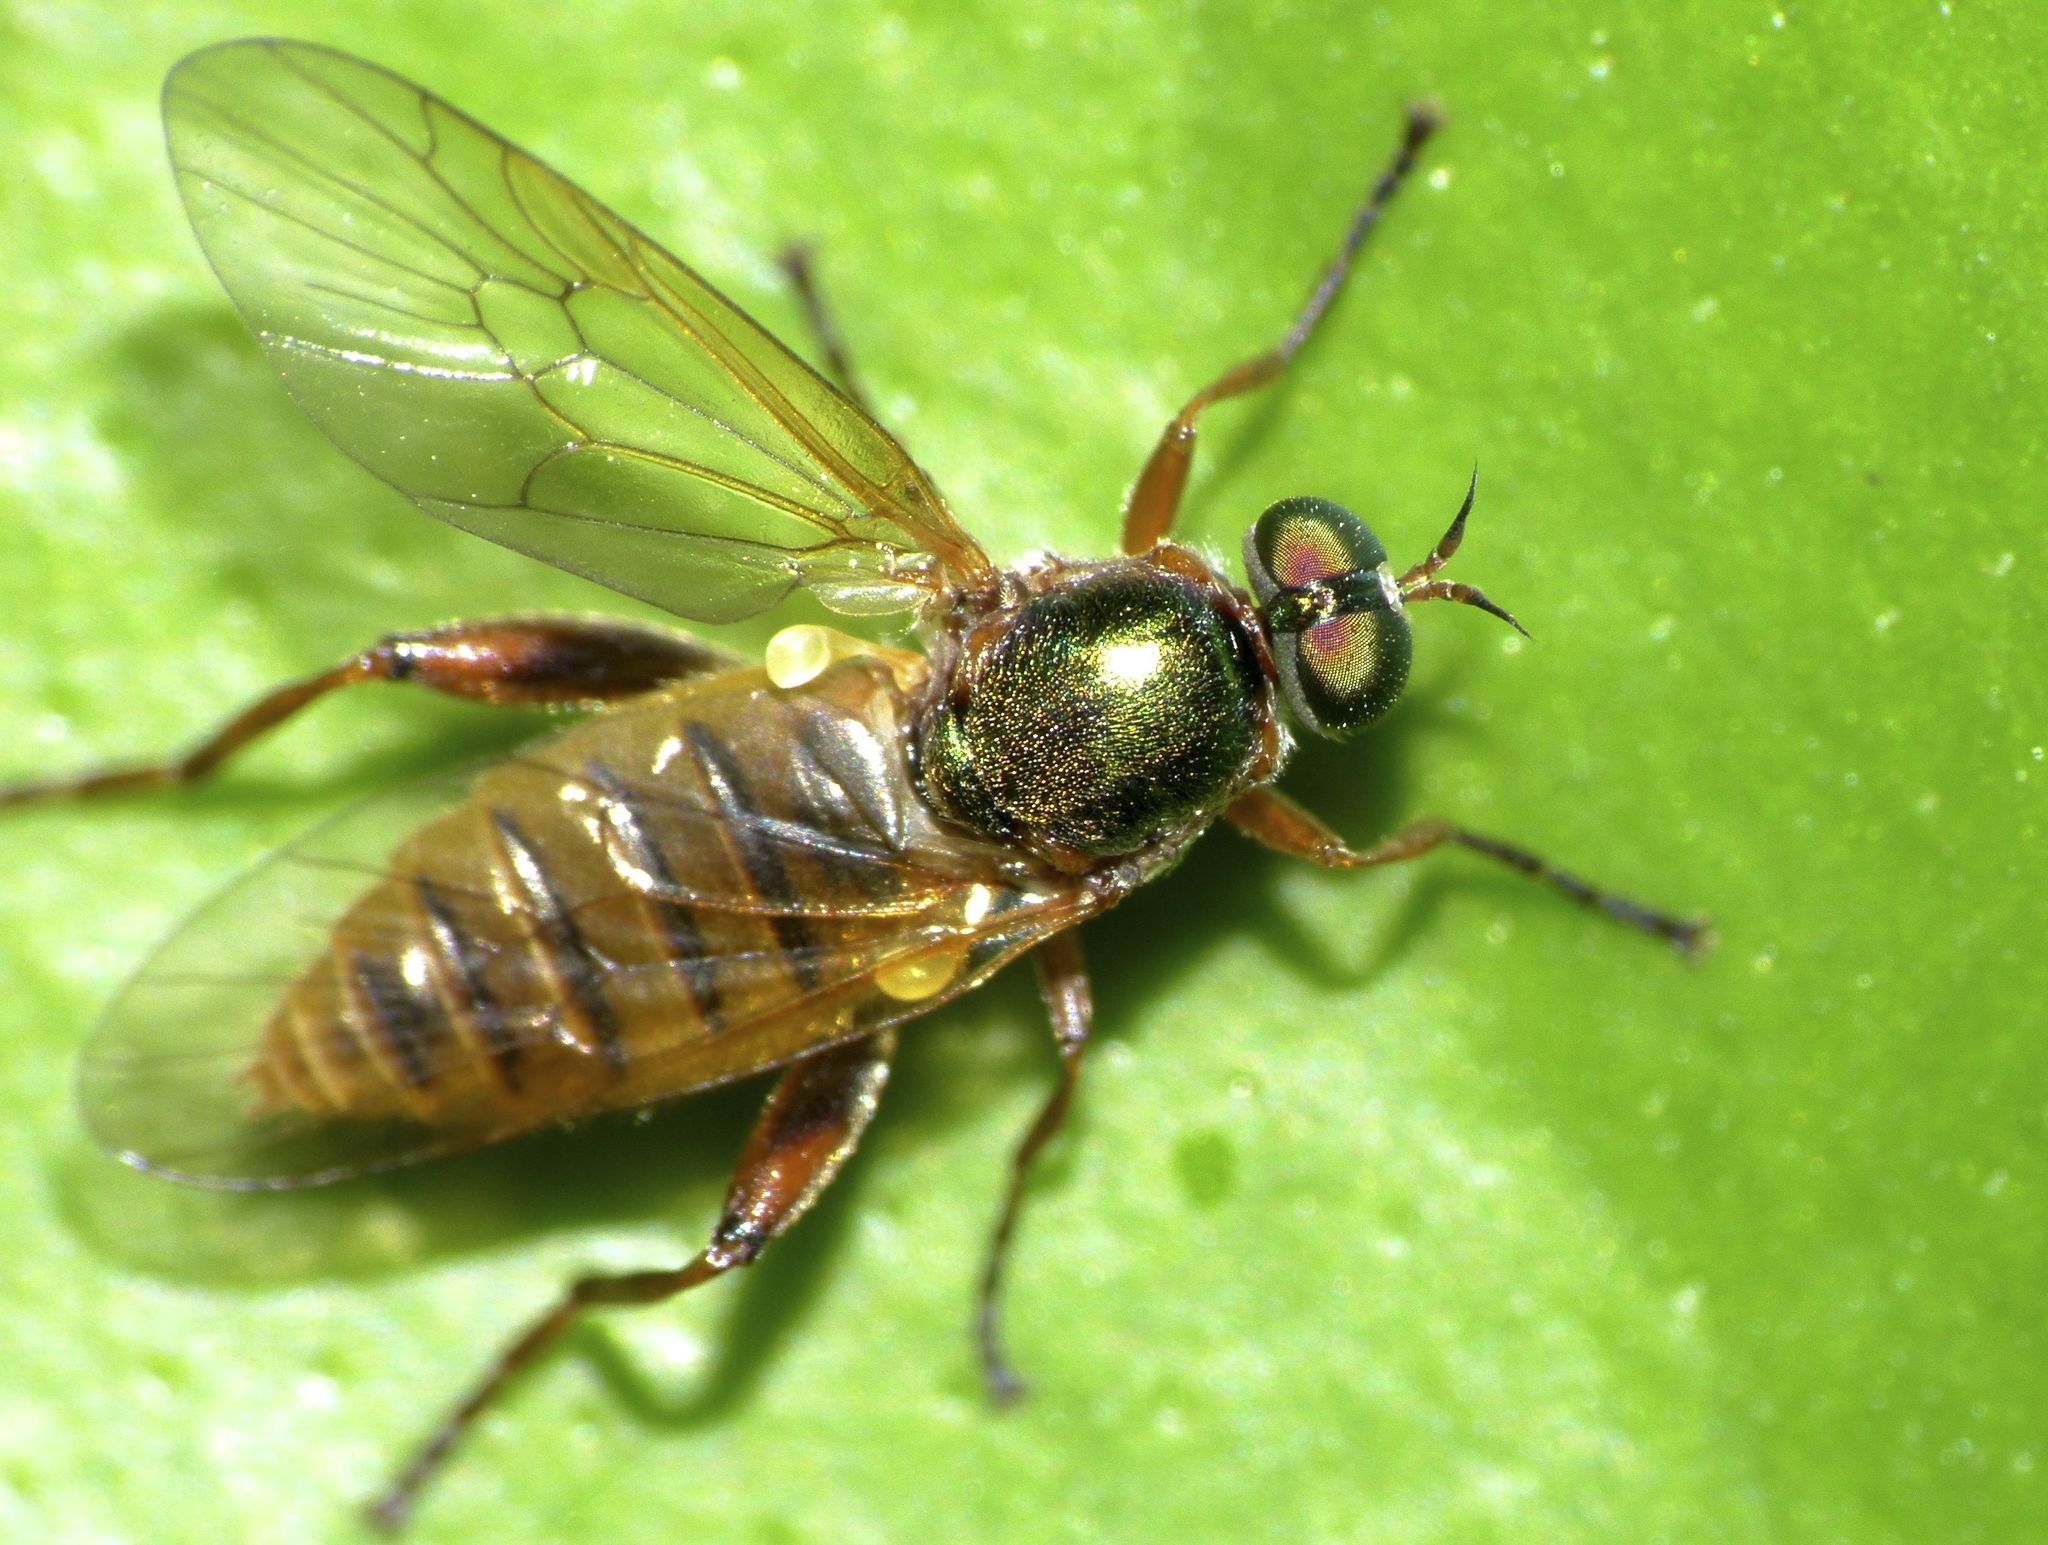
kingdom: Animalia
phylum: Arthropoda
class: Insecta
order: Diptera
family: Stratiomyidae
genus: Neactina
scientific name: Neactina opposita
